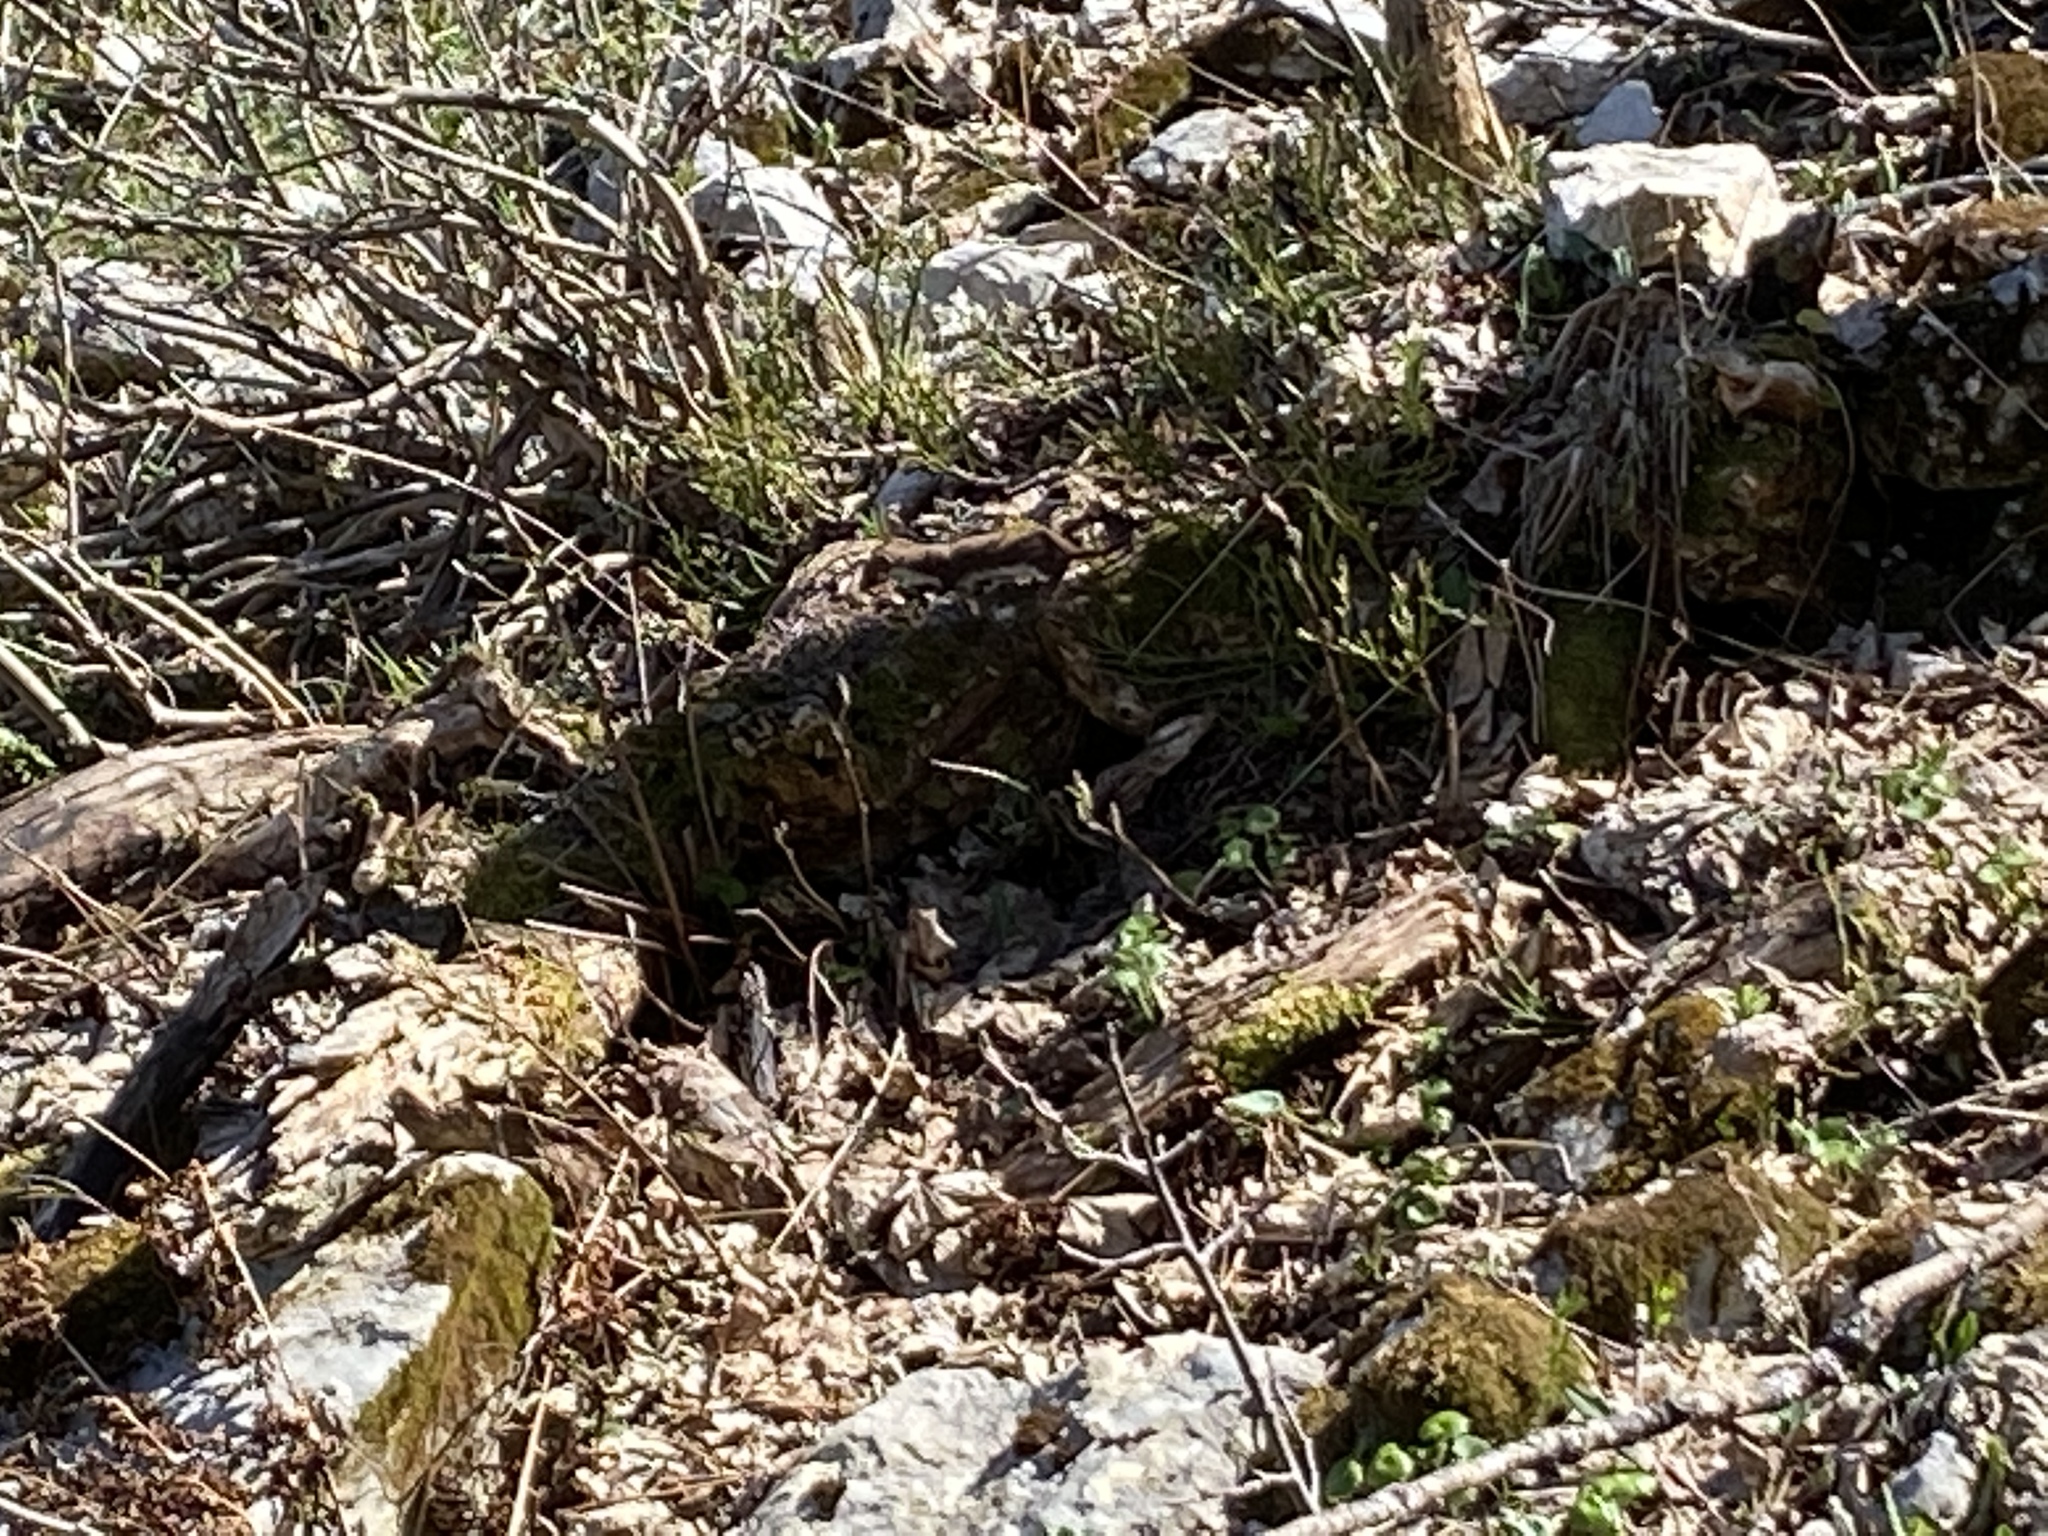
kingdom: Animalia
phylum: Chordata
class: Mammalia
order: Carnivora
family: Mustelidae
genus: Mustela
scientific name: Mustela nivalis
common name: Least weasel
